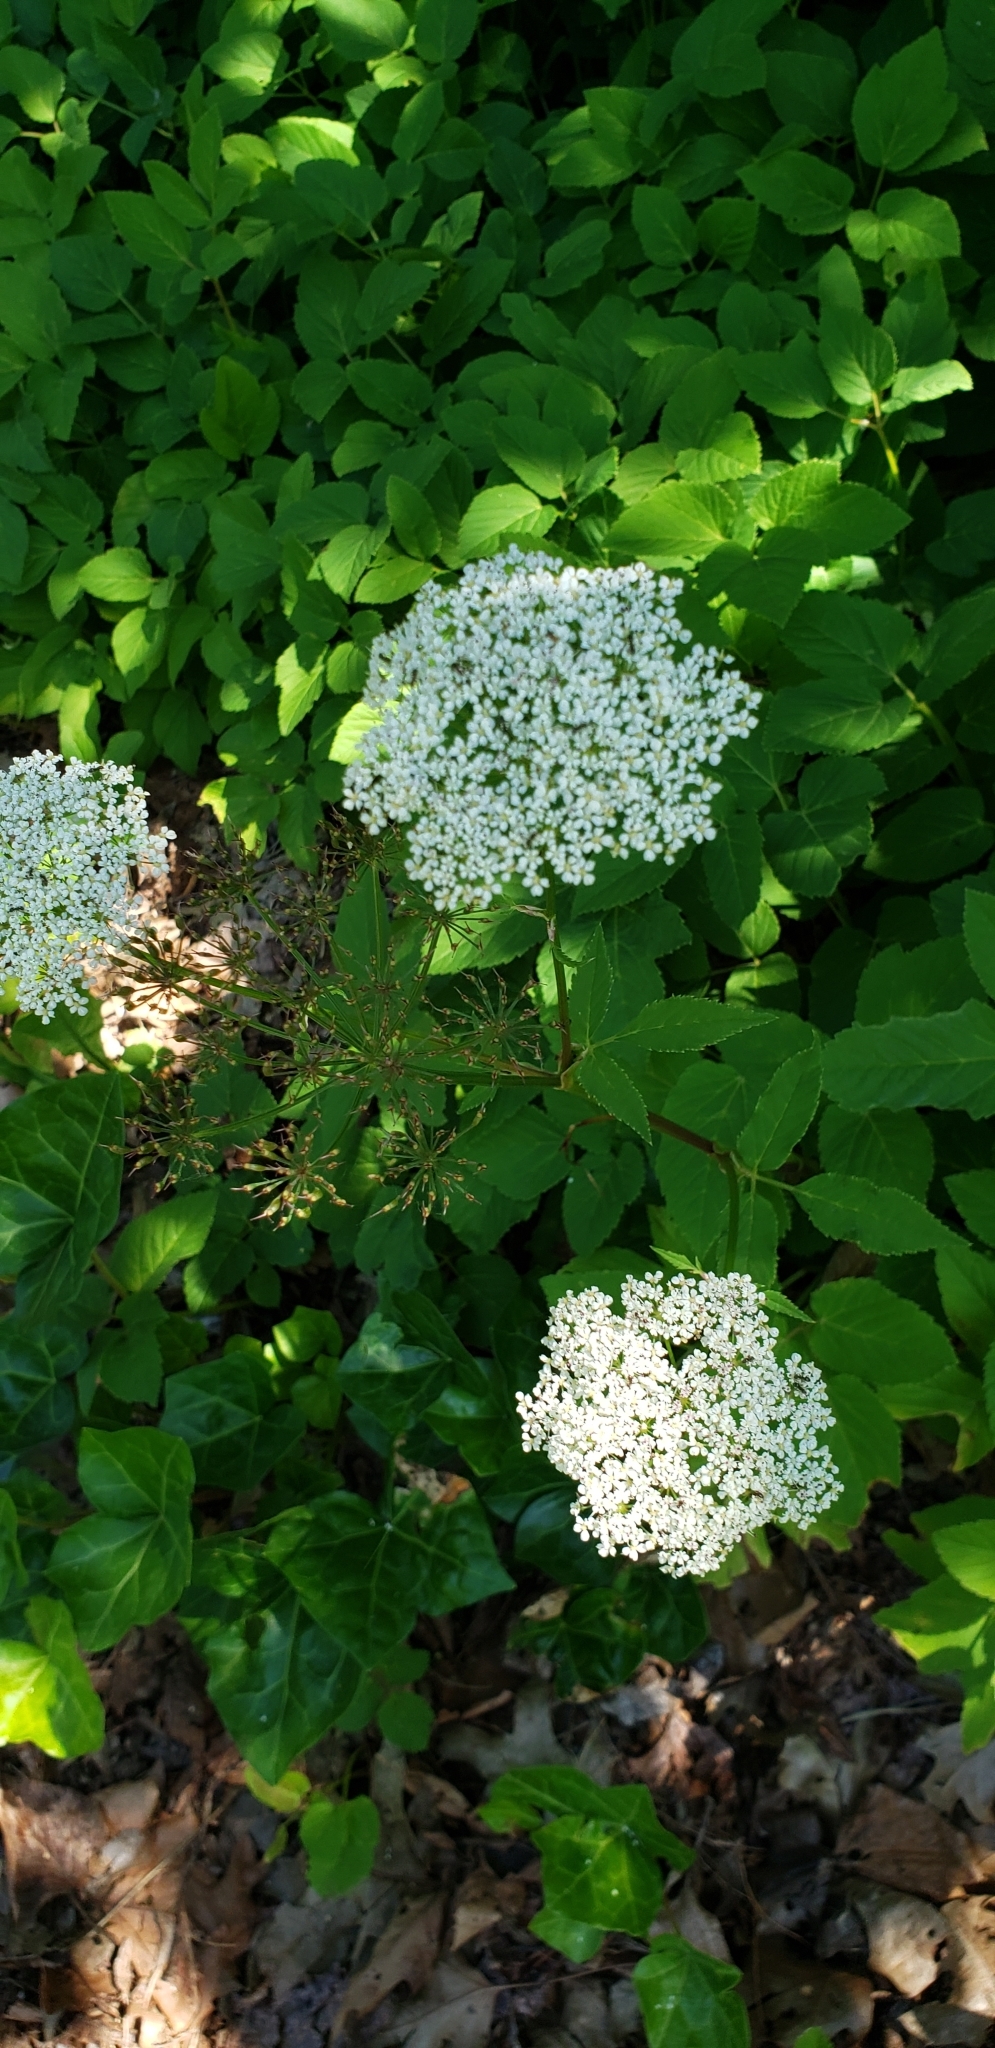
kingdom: Plantae
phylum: Tracheophyta
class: Magnoliopsida
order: Apiales
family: Apiaceae
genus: Aegopodium
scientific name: Aegopodium podagraria
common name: Ground-elder
